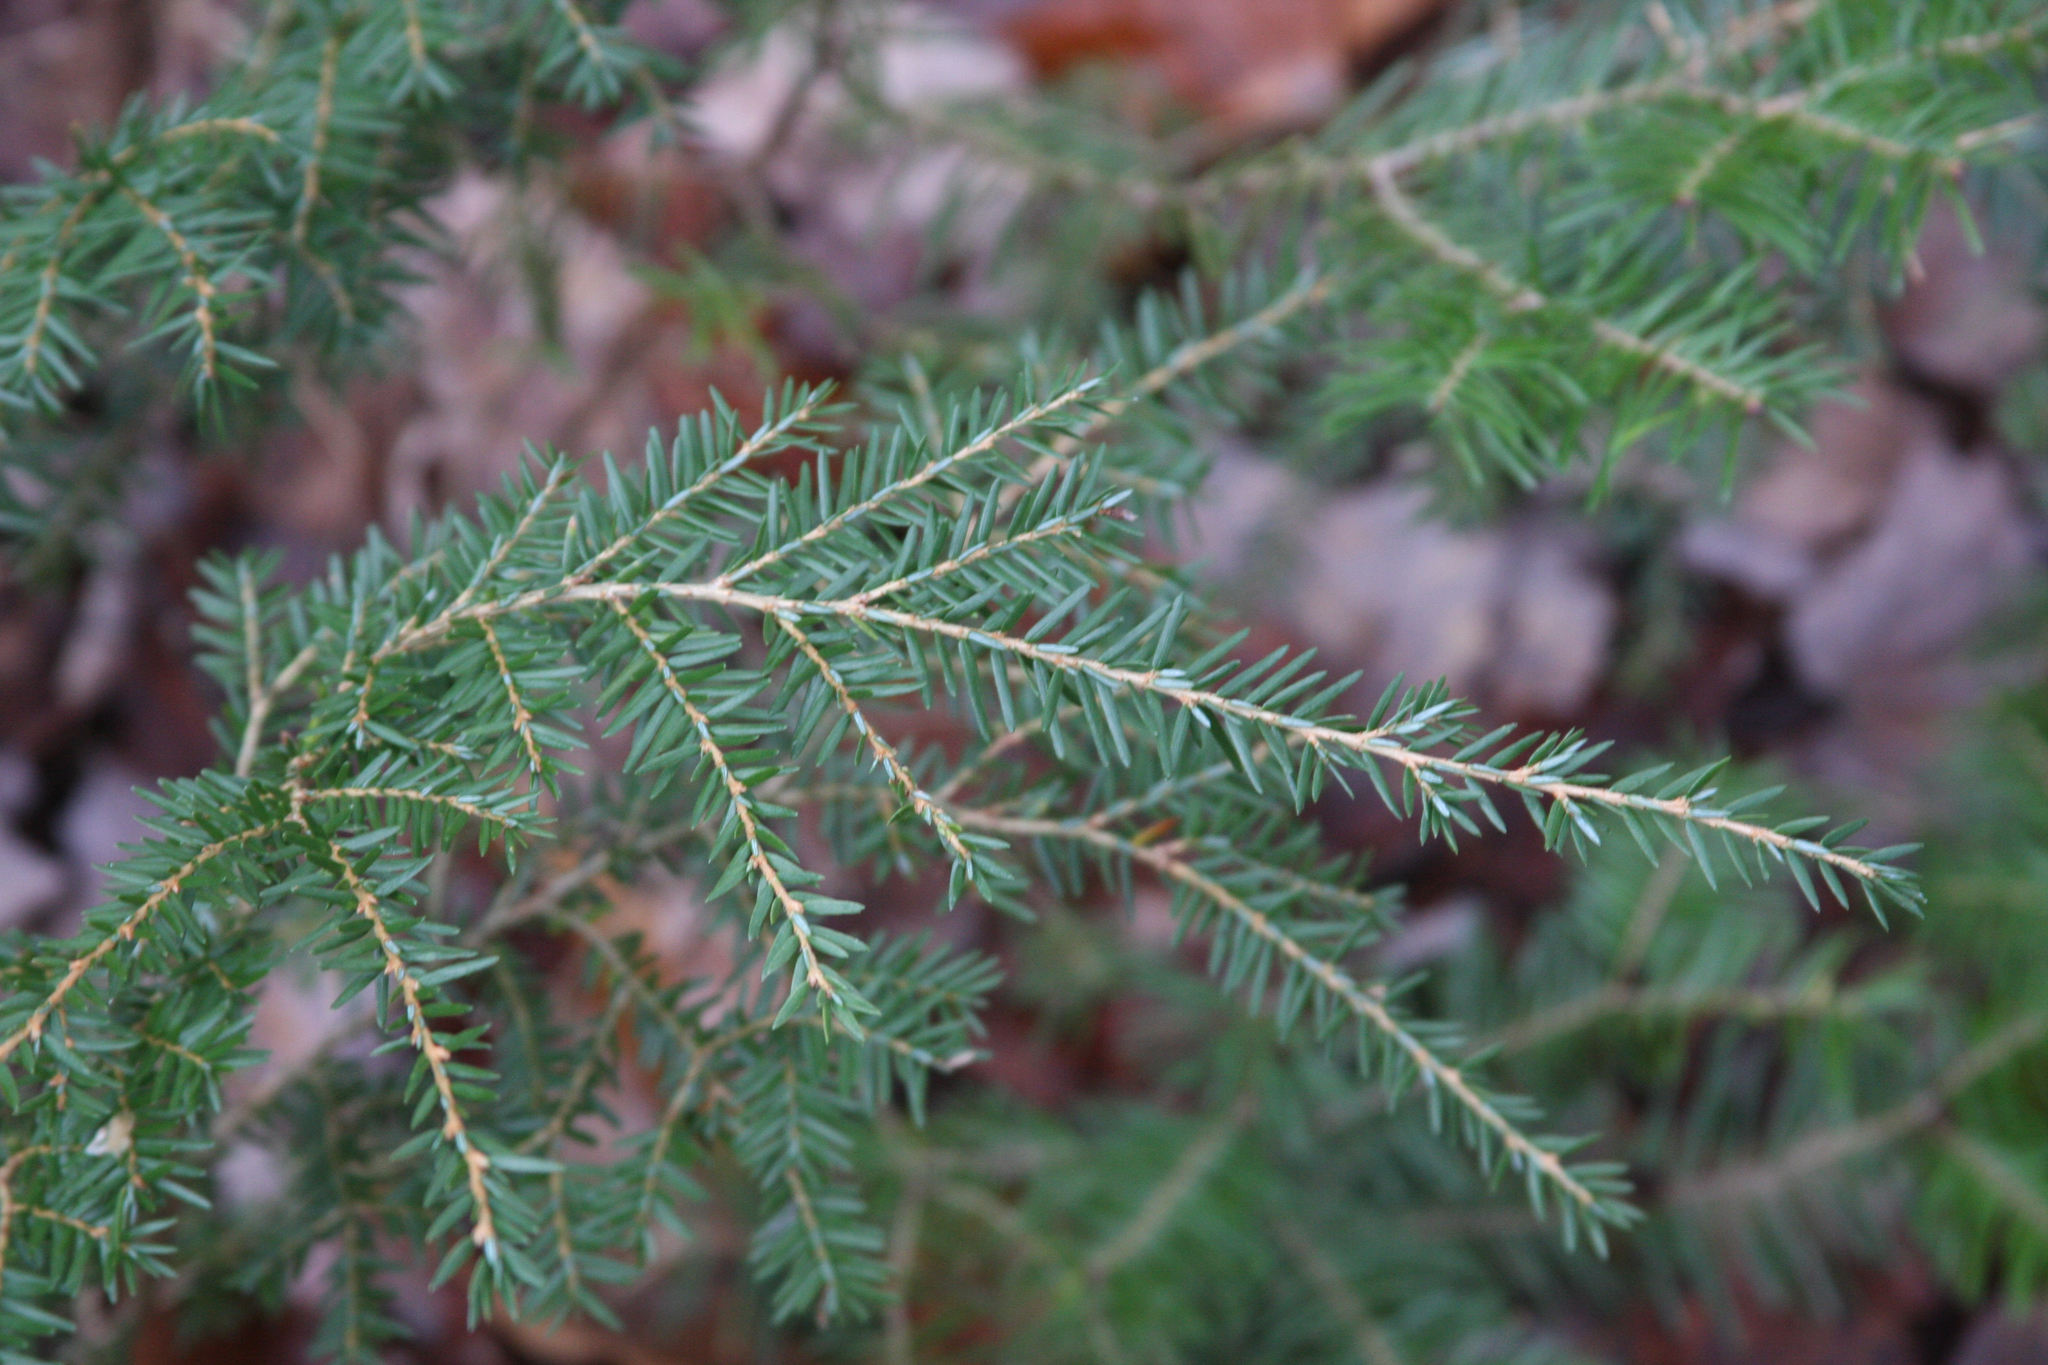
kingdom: Plantae
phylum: Tracheophyta
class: Pinopsida
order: Pinales
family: Pinaceae
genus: Tsuga
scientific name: Tsuga canadensis
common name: Eastern hemlock
